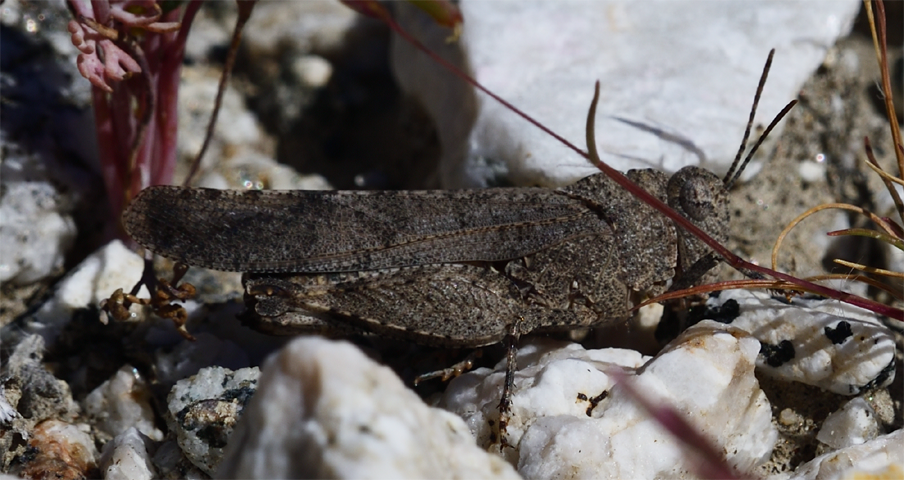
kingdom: Animalia
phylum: Arthropoda
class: Insecta
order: Orthoptera
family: Acrididae
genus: Lactista
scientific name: Lactista gibbosus
